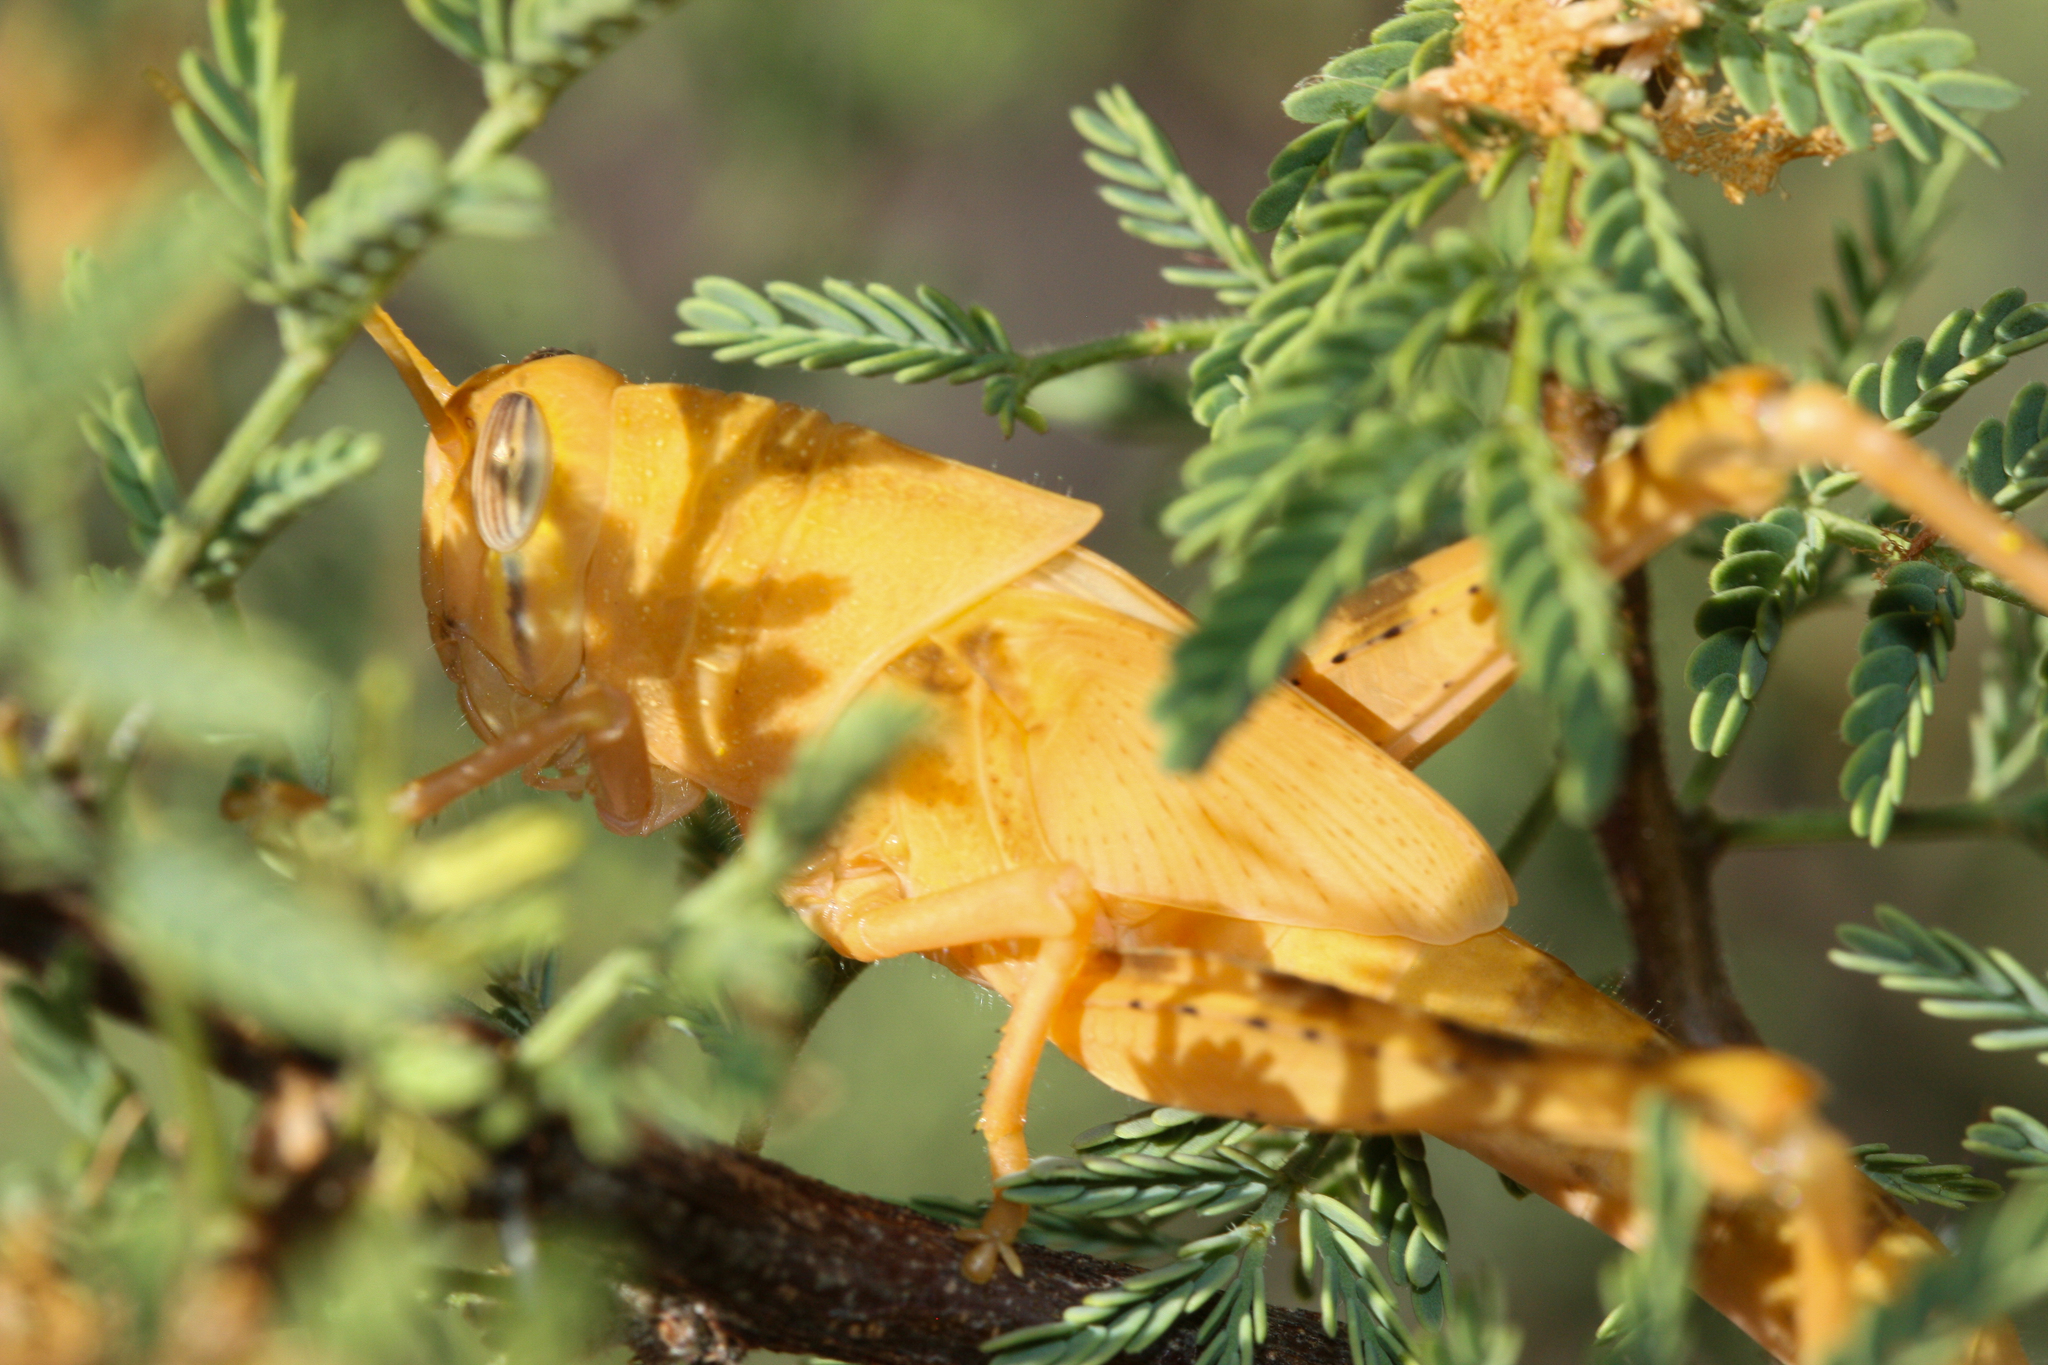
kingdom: Animalia
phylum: Arthropoda
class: Insecta
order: Orthoptera
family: Acrididae
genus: Schistocerca
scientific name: Schistocerca nitens
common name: Vagrant grasshopper
